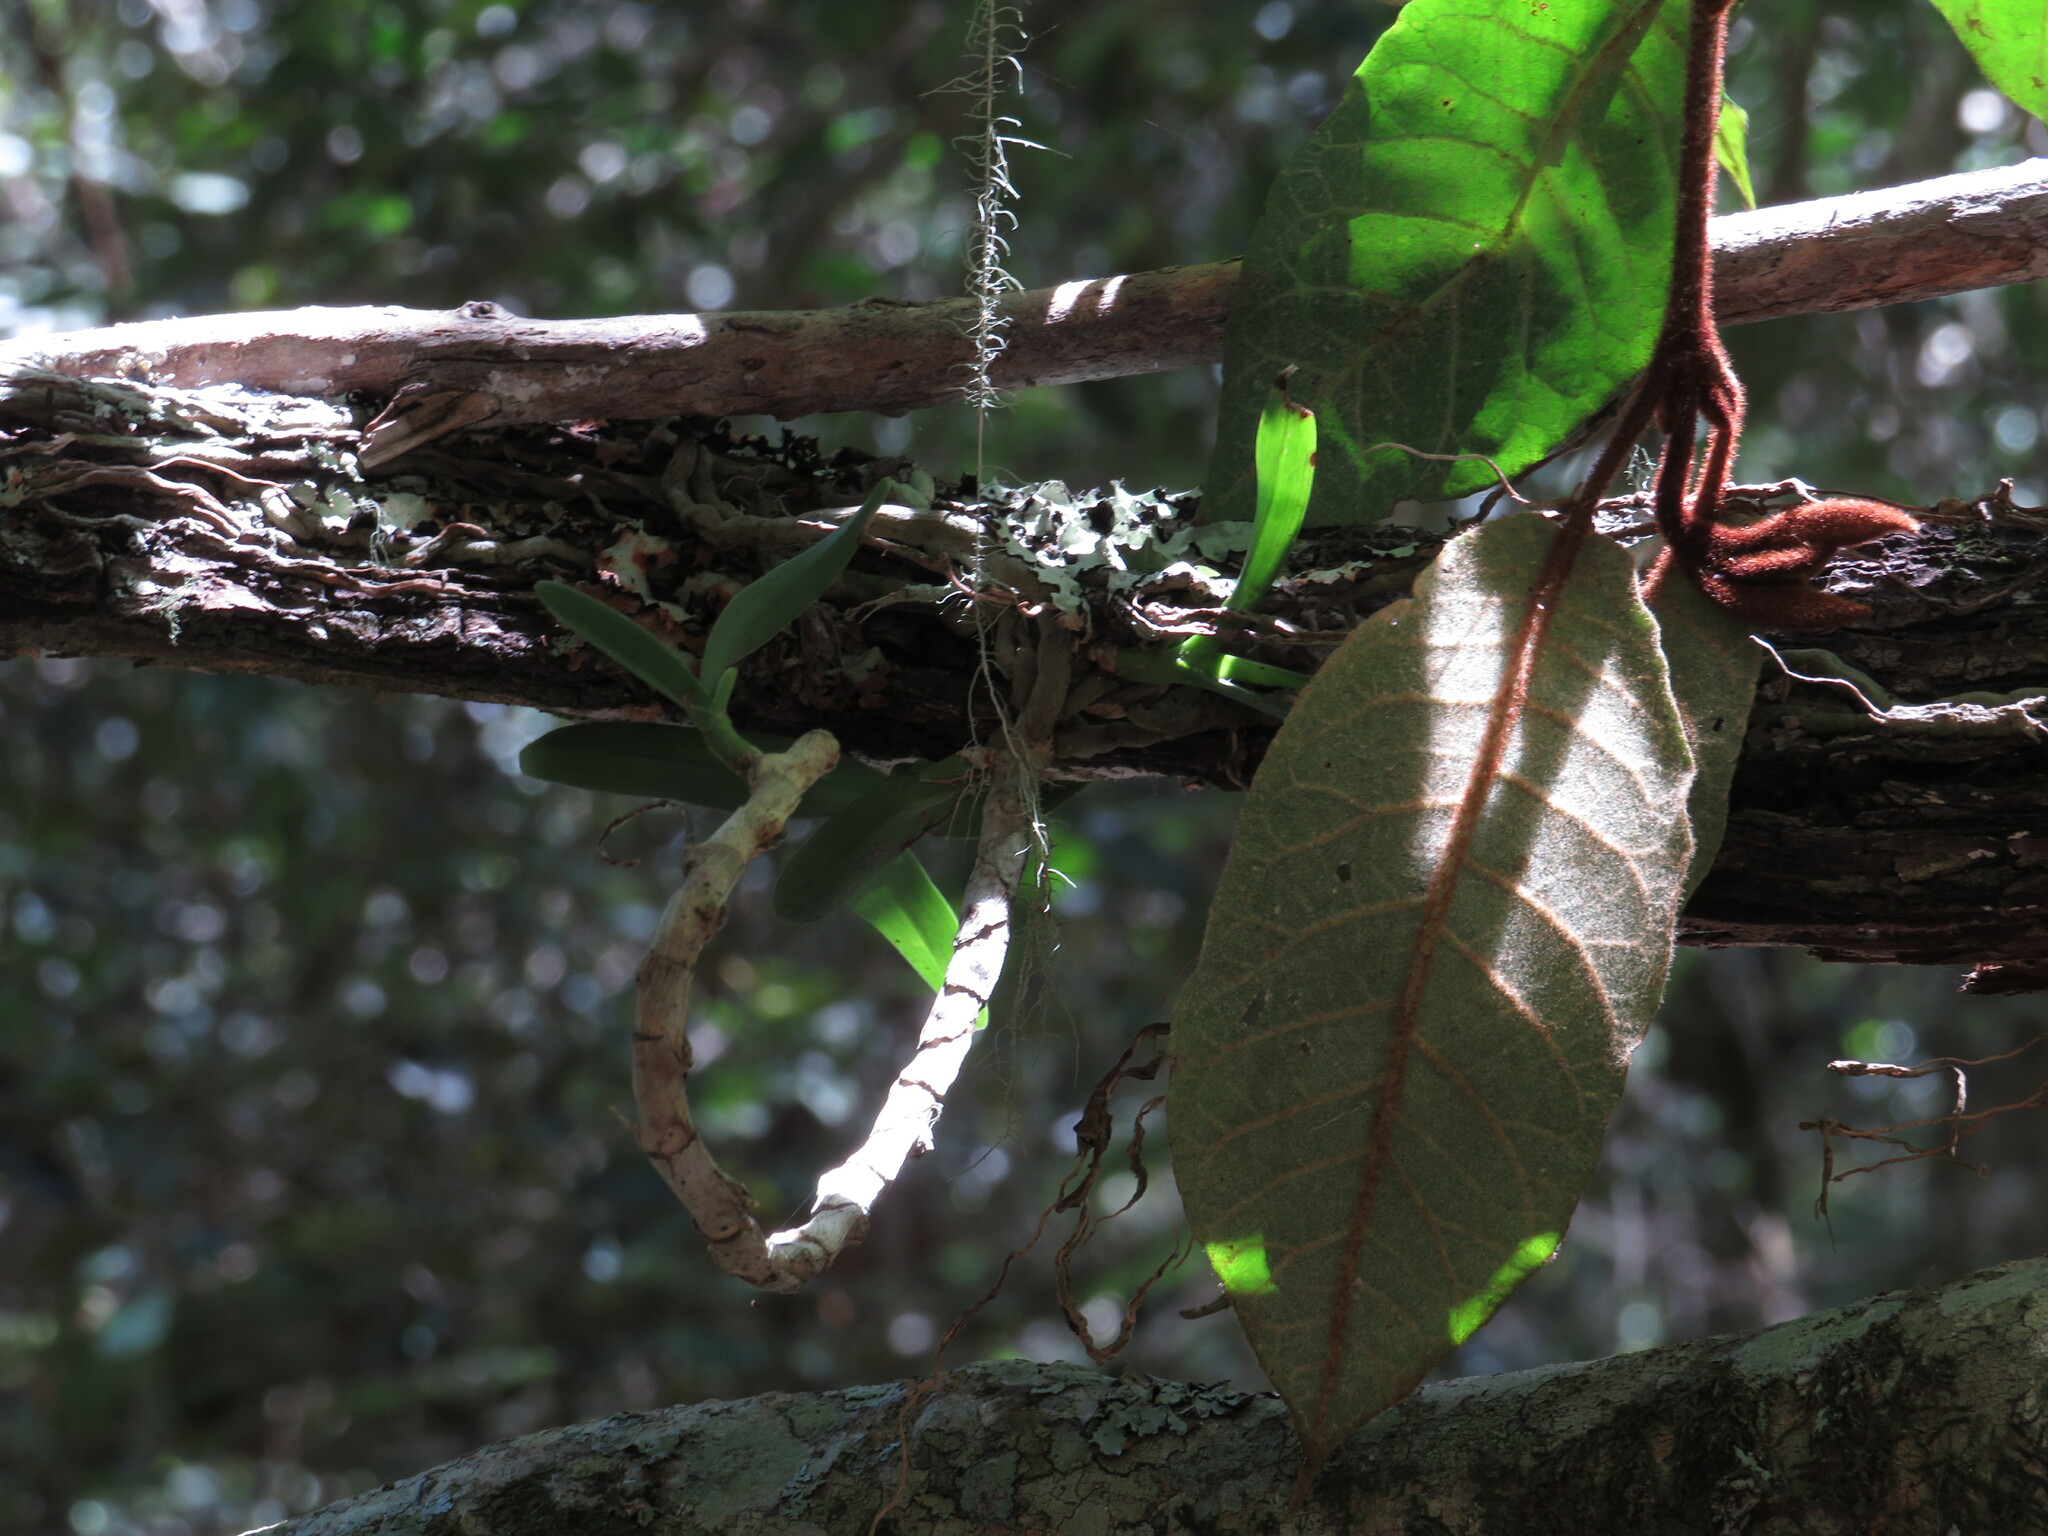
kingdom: Plantae
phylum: Tracheophyta
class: Liliopsida
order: Asparagales
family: Orchidaceae
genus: Tridactyle
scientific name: Tridactyle bicaudata
